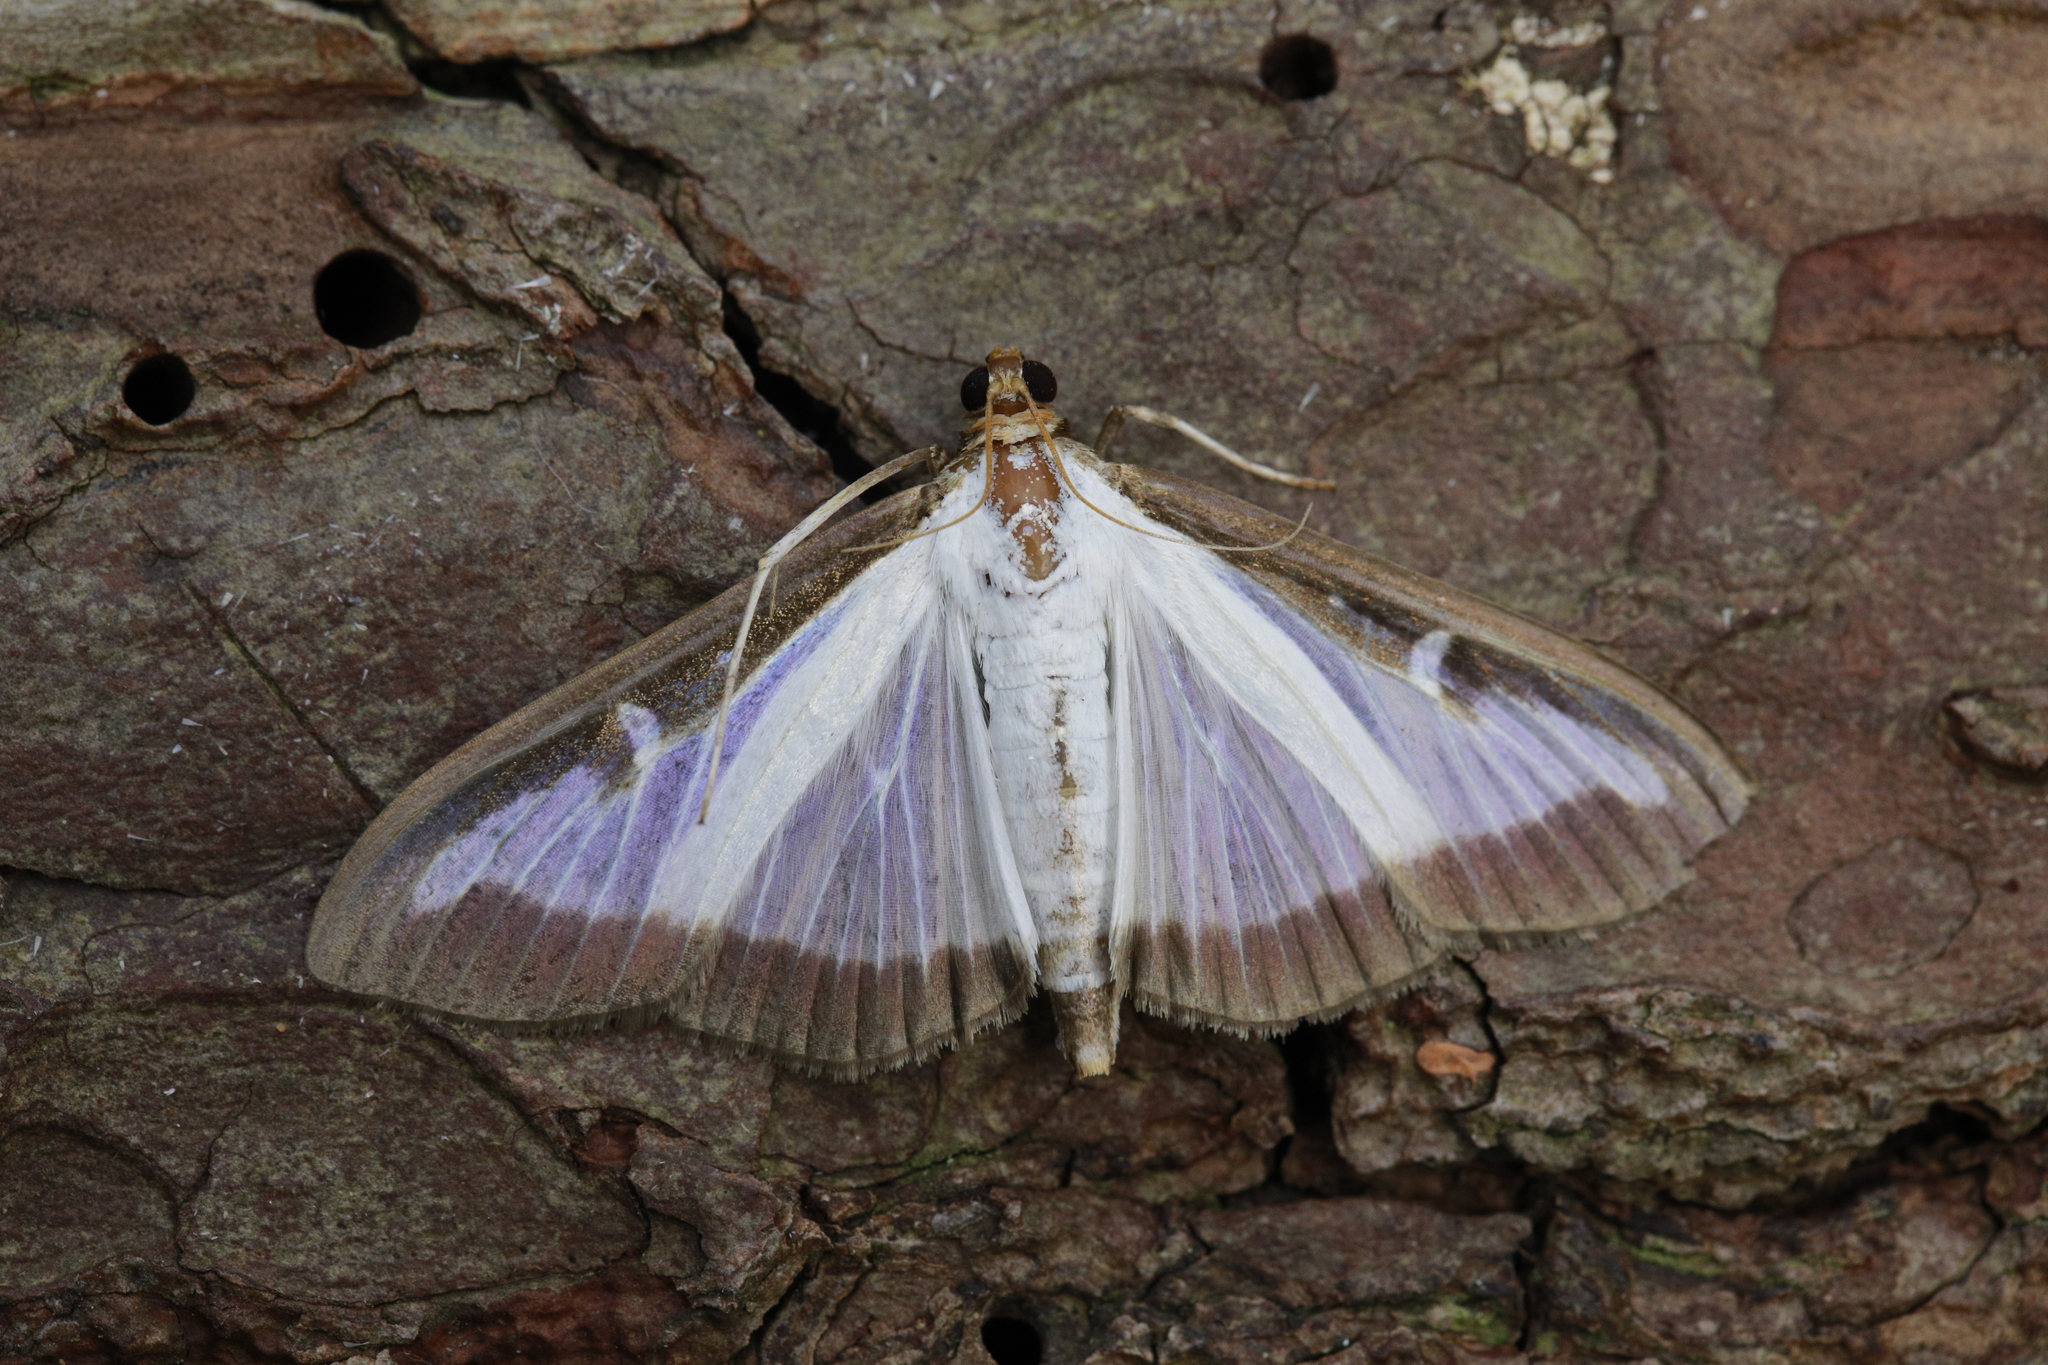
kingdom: Animalia
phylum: Arthropoda
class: Insecta
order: Lepidoptera
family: Crambidae
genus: Cydalima
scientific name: Cydalima perspectalis
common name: Box tree moth
